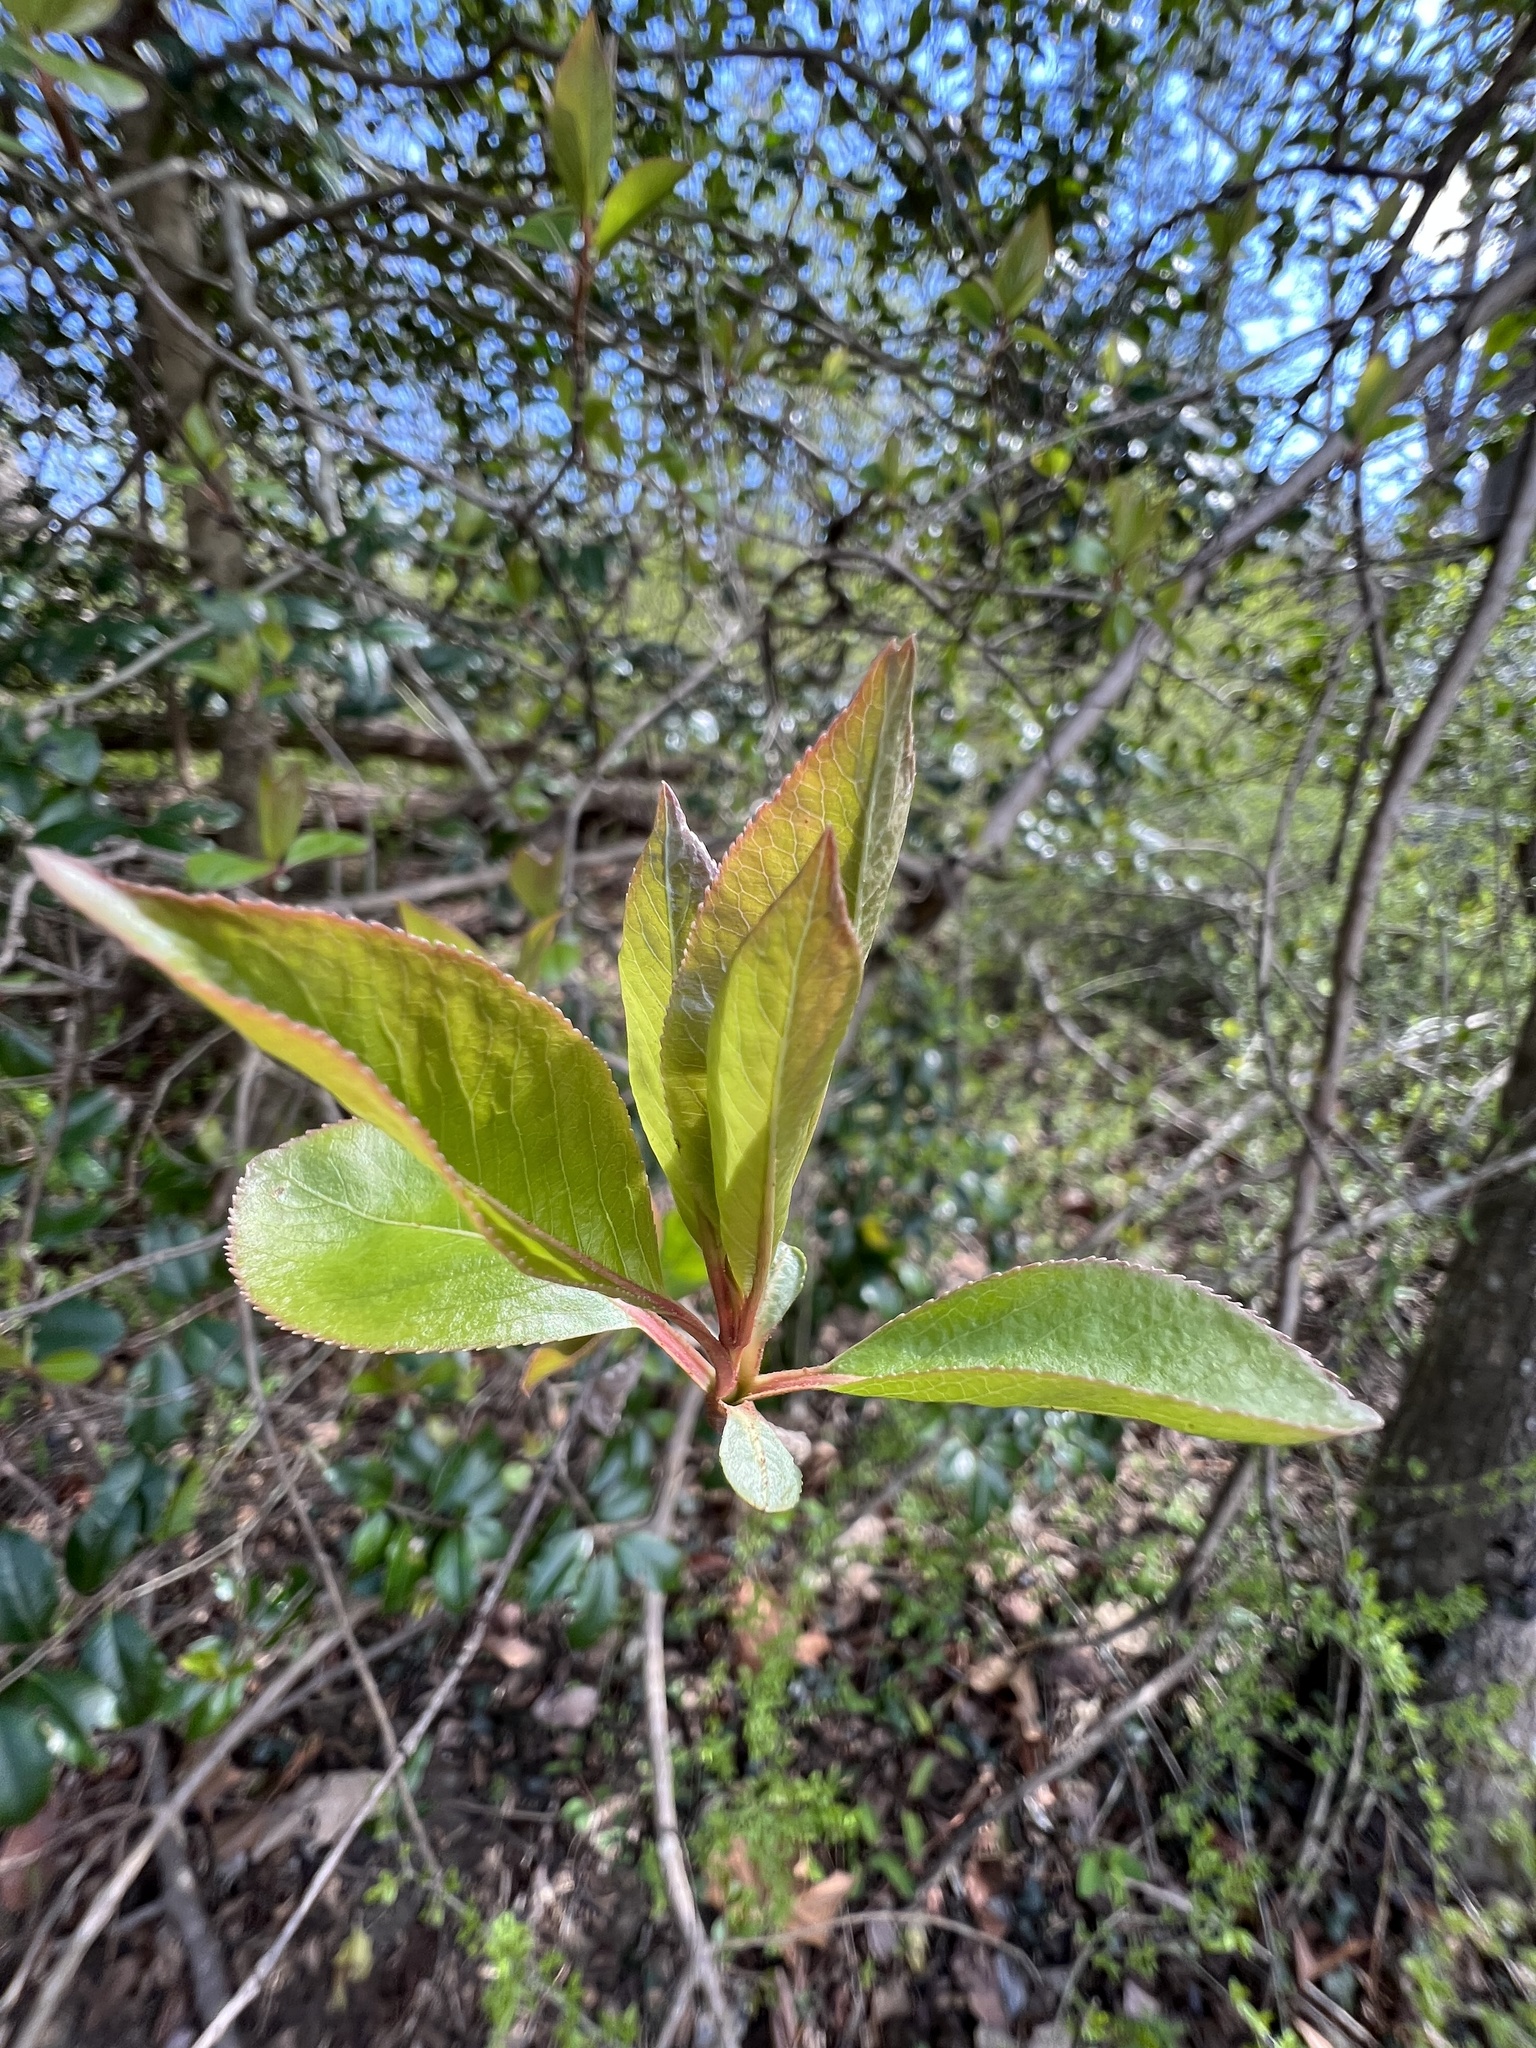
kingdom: Plantae
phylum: Tracheophyta
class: Magnoliopsida
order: Dipsacales
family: Viburnaceae
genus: Viburnum
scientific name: Viburnum prunifolium
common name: Black haw
